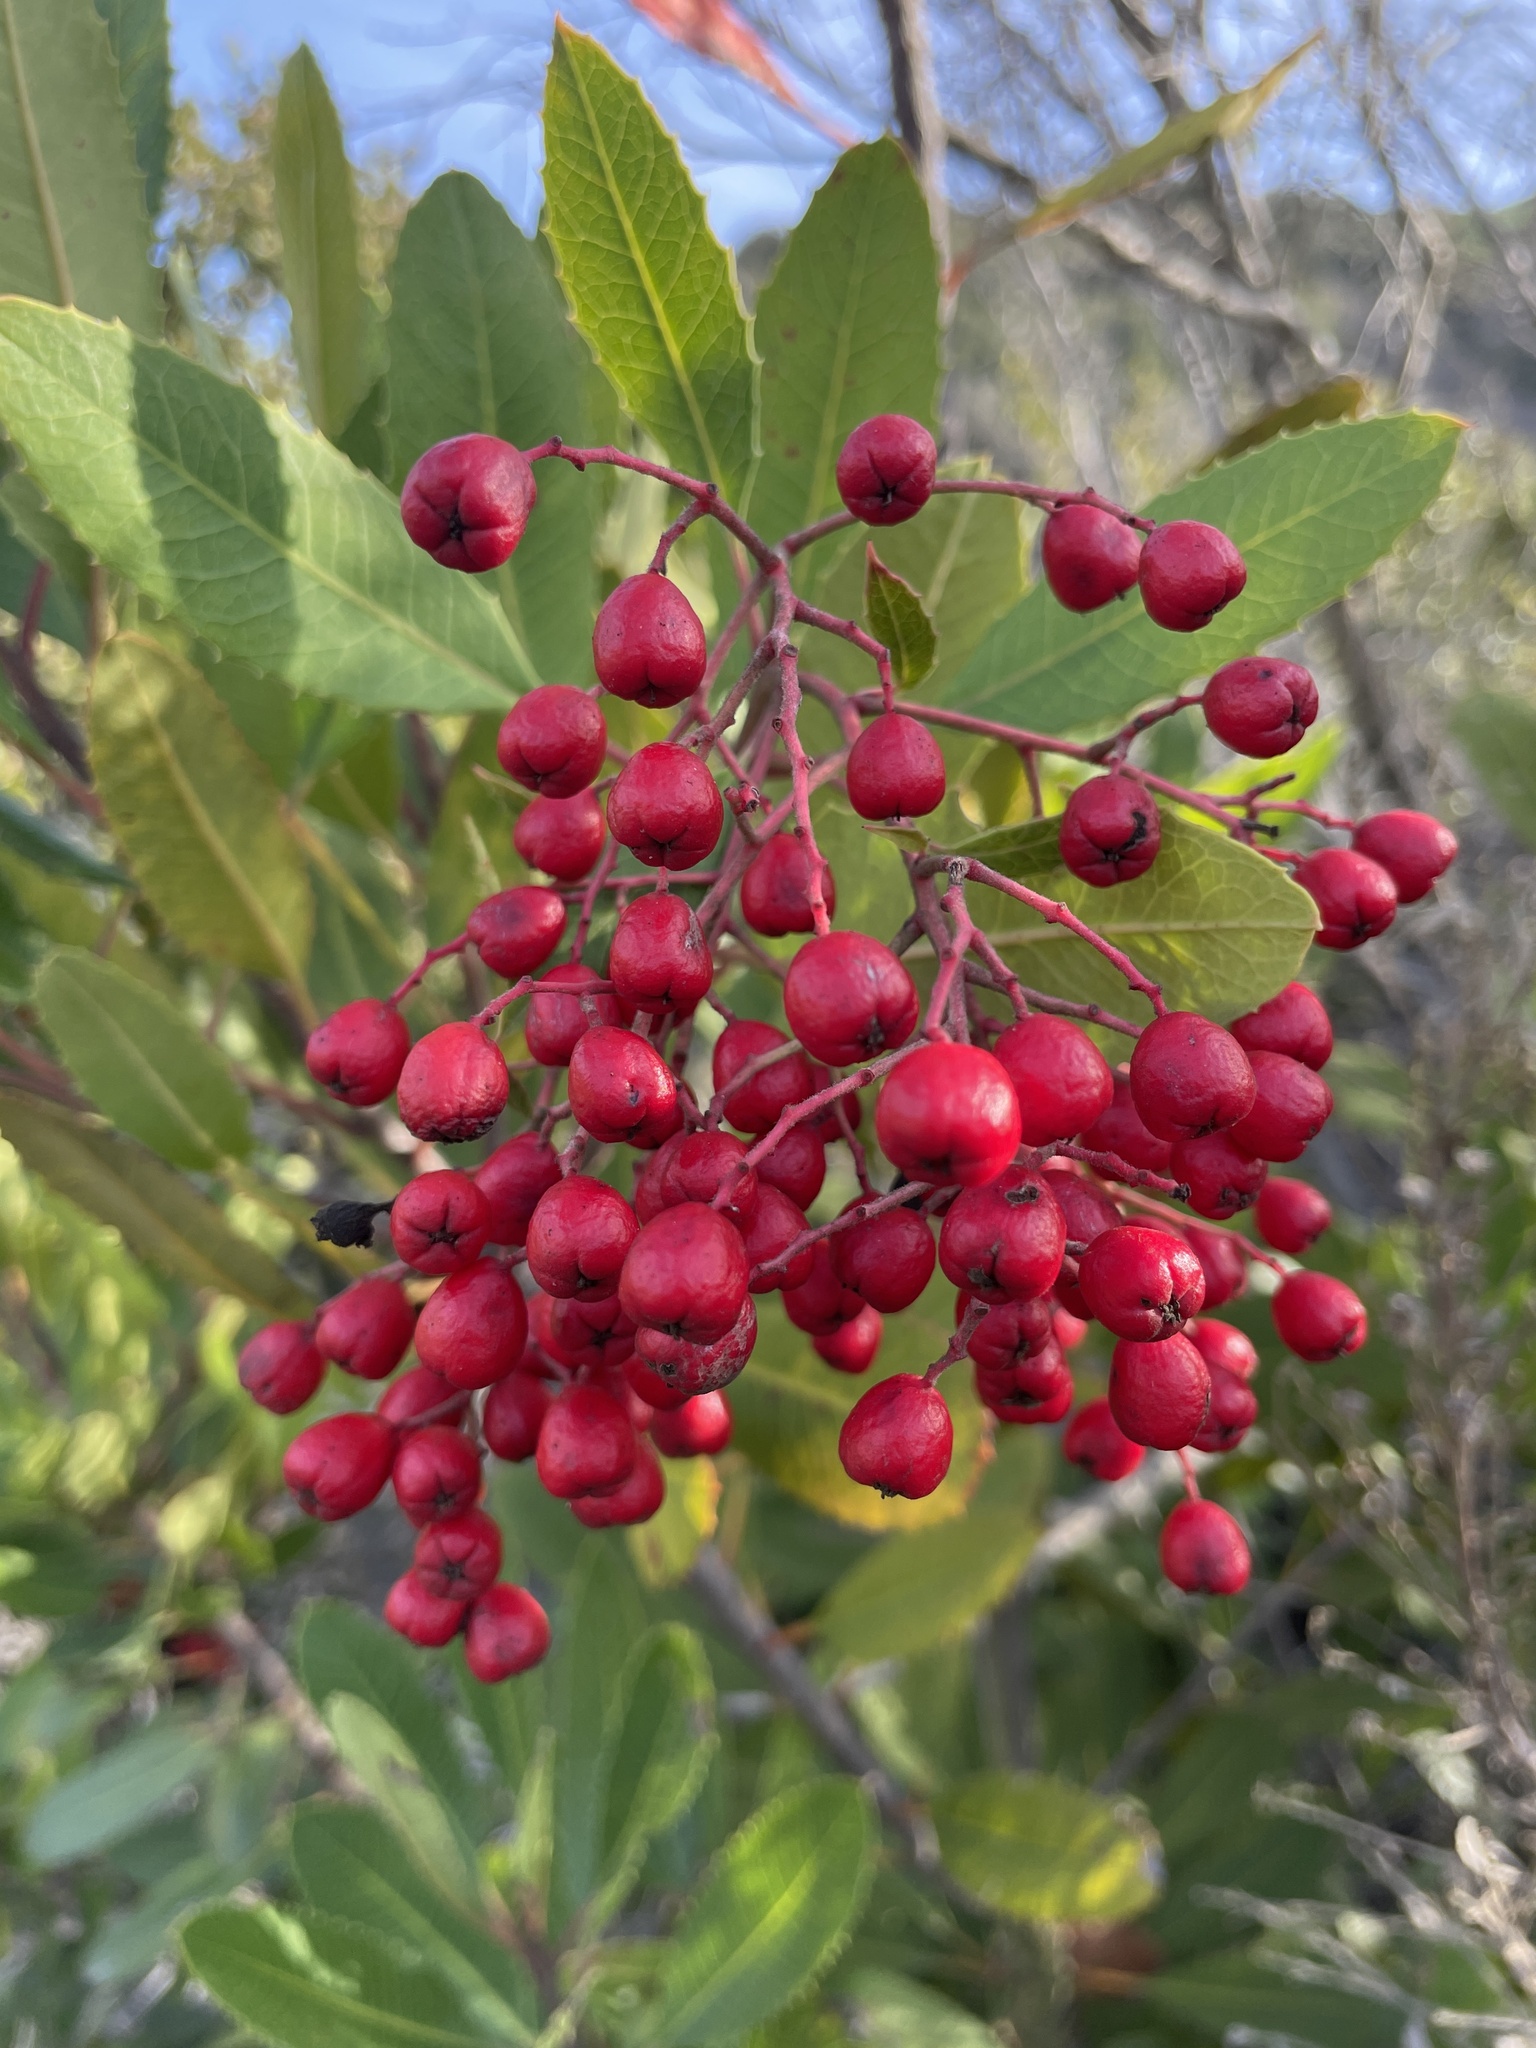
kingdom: Plantae
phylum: Tracheophyta
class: Magnoliopsida
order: Rosales
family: Rosaceae
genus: Heteromeles
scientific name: Heteromeles arbutifolia
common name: California-holly
